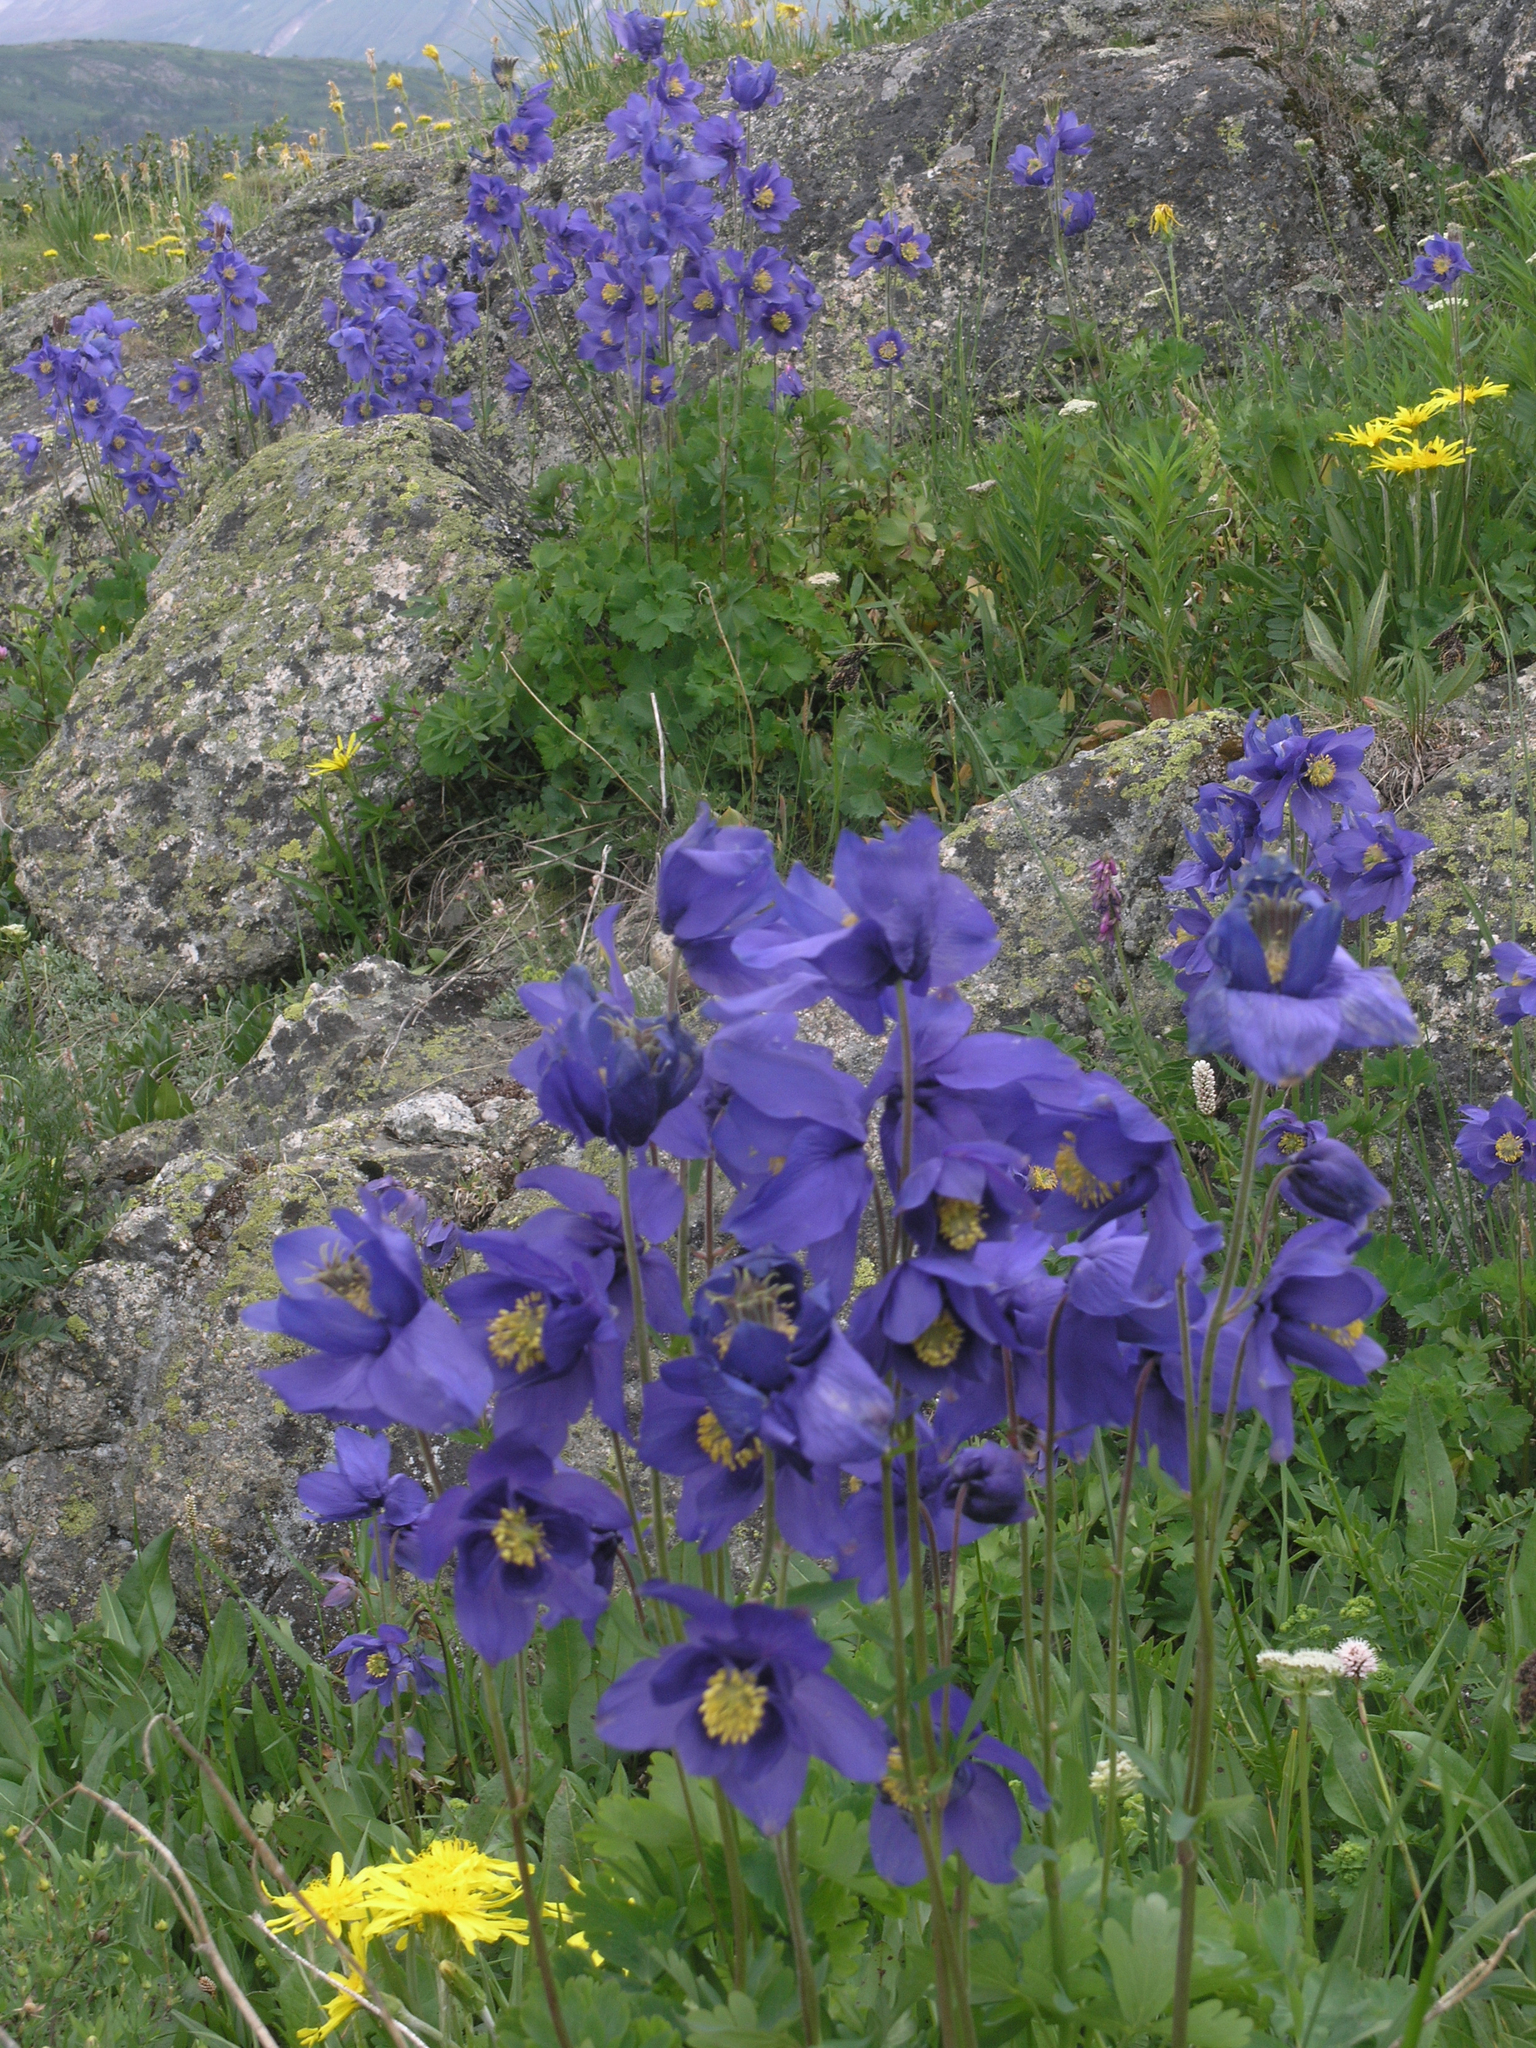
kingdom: Plantae
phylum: Tracheophyta
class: Magnoliopsida
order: Ranunculales
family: Ranunculaceae
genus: Aquilegia
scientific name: Aquilegia glandulosa
